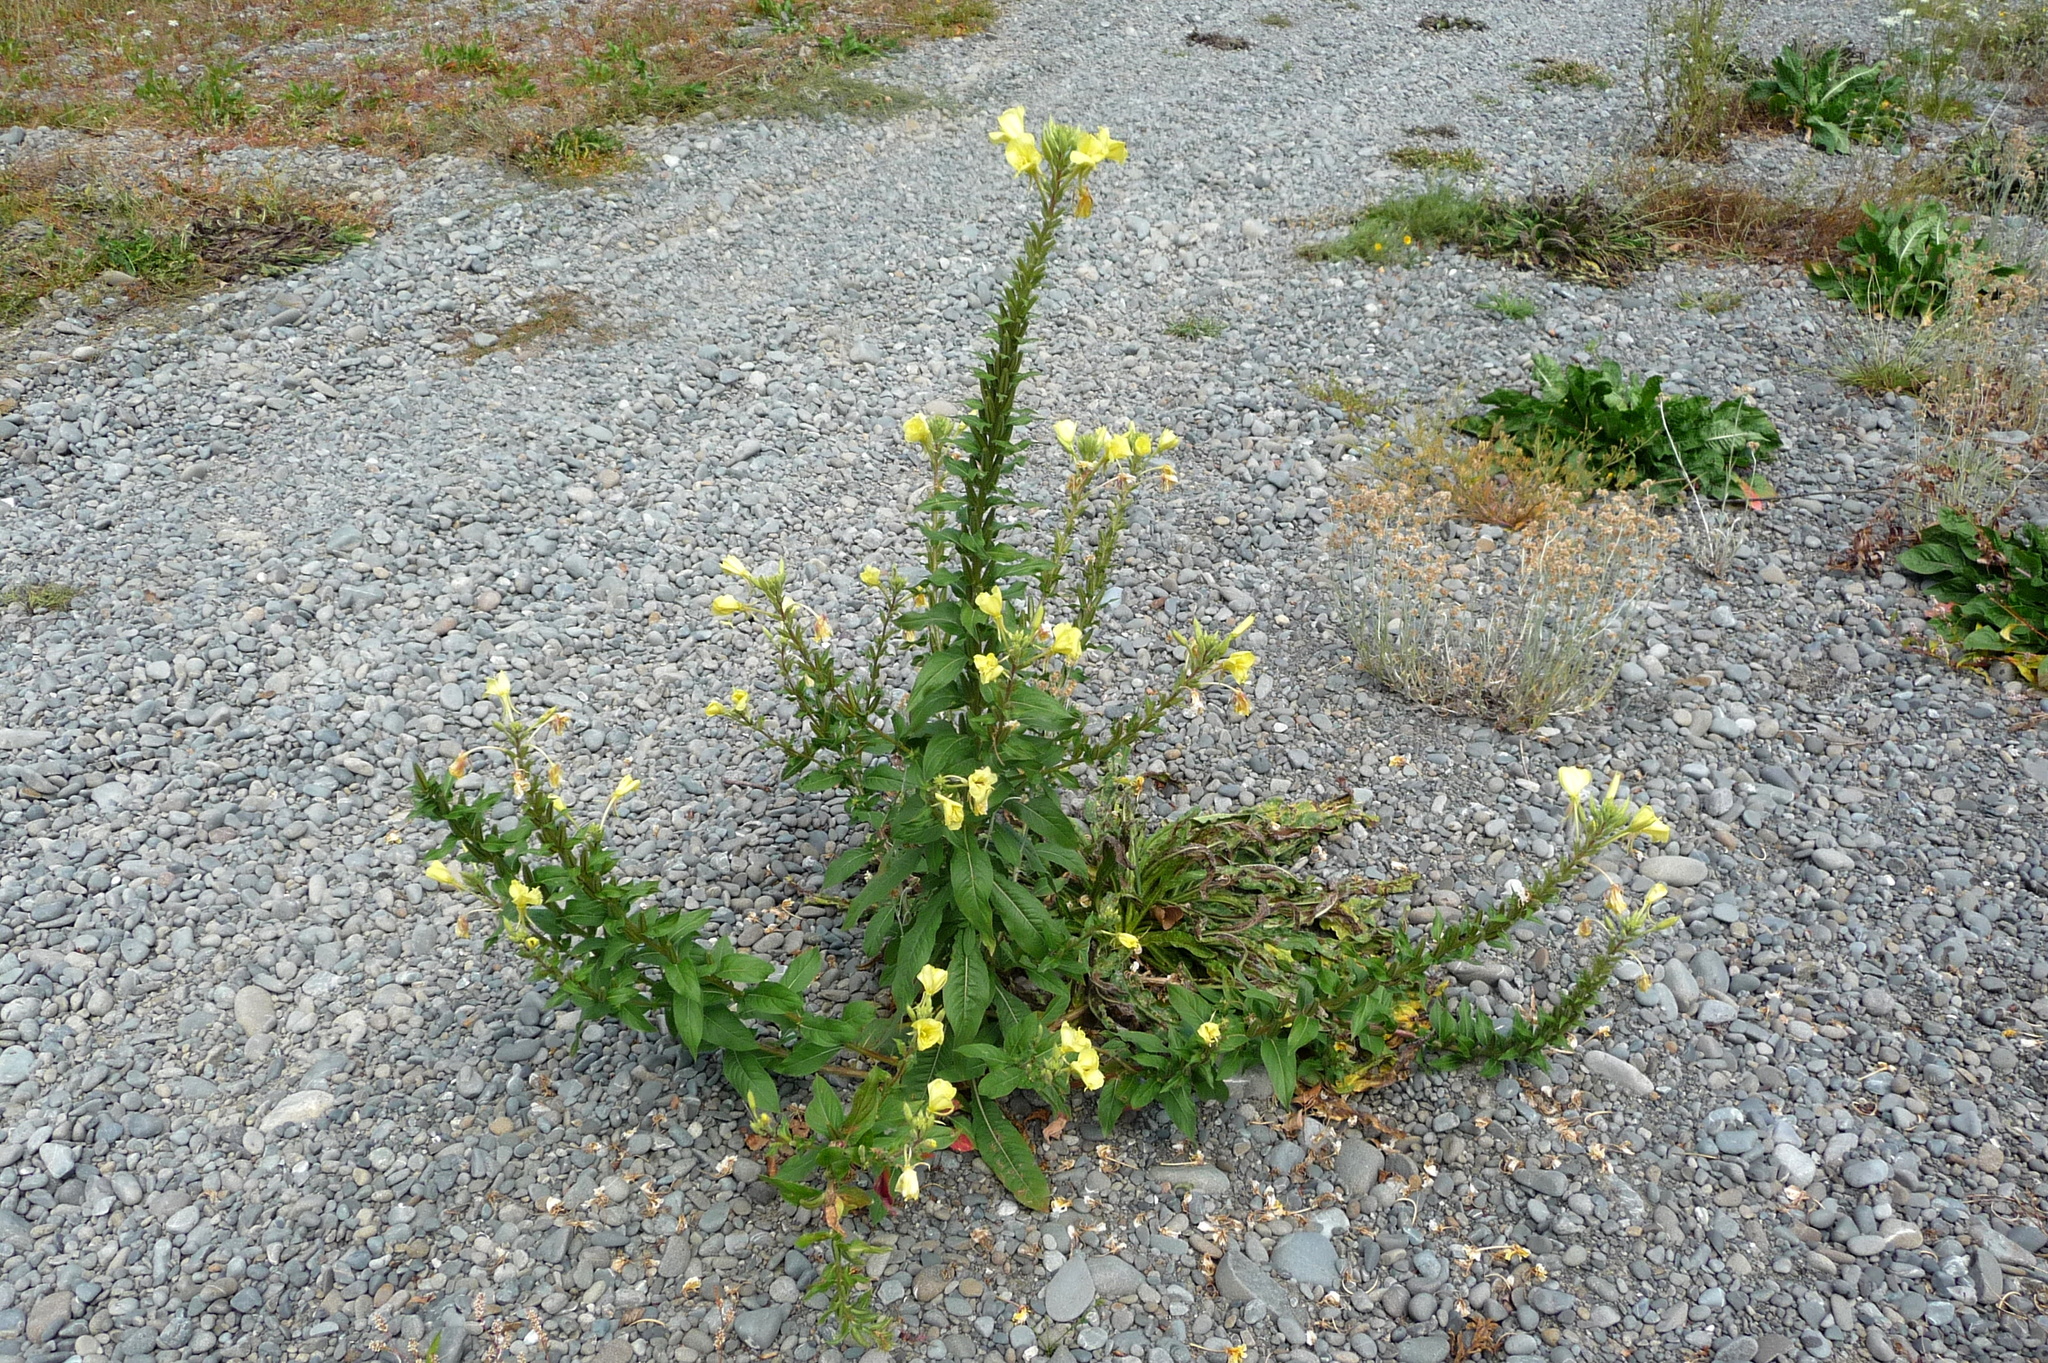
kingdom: Plantae
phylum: Tracheophyta
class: Magnoliopsida
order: Myrtales
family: Onagraceae
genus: Oenothera
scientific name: Oenothera glazioviana
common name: Large-flowered evening-primrose
